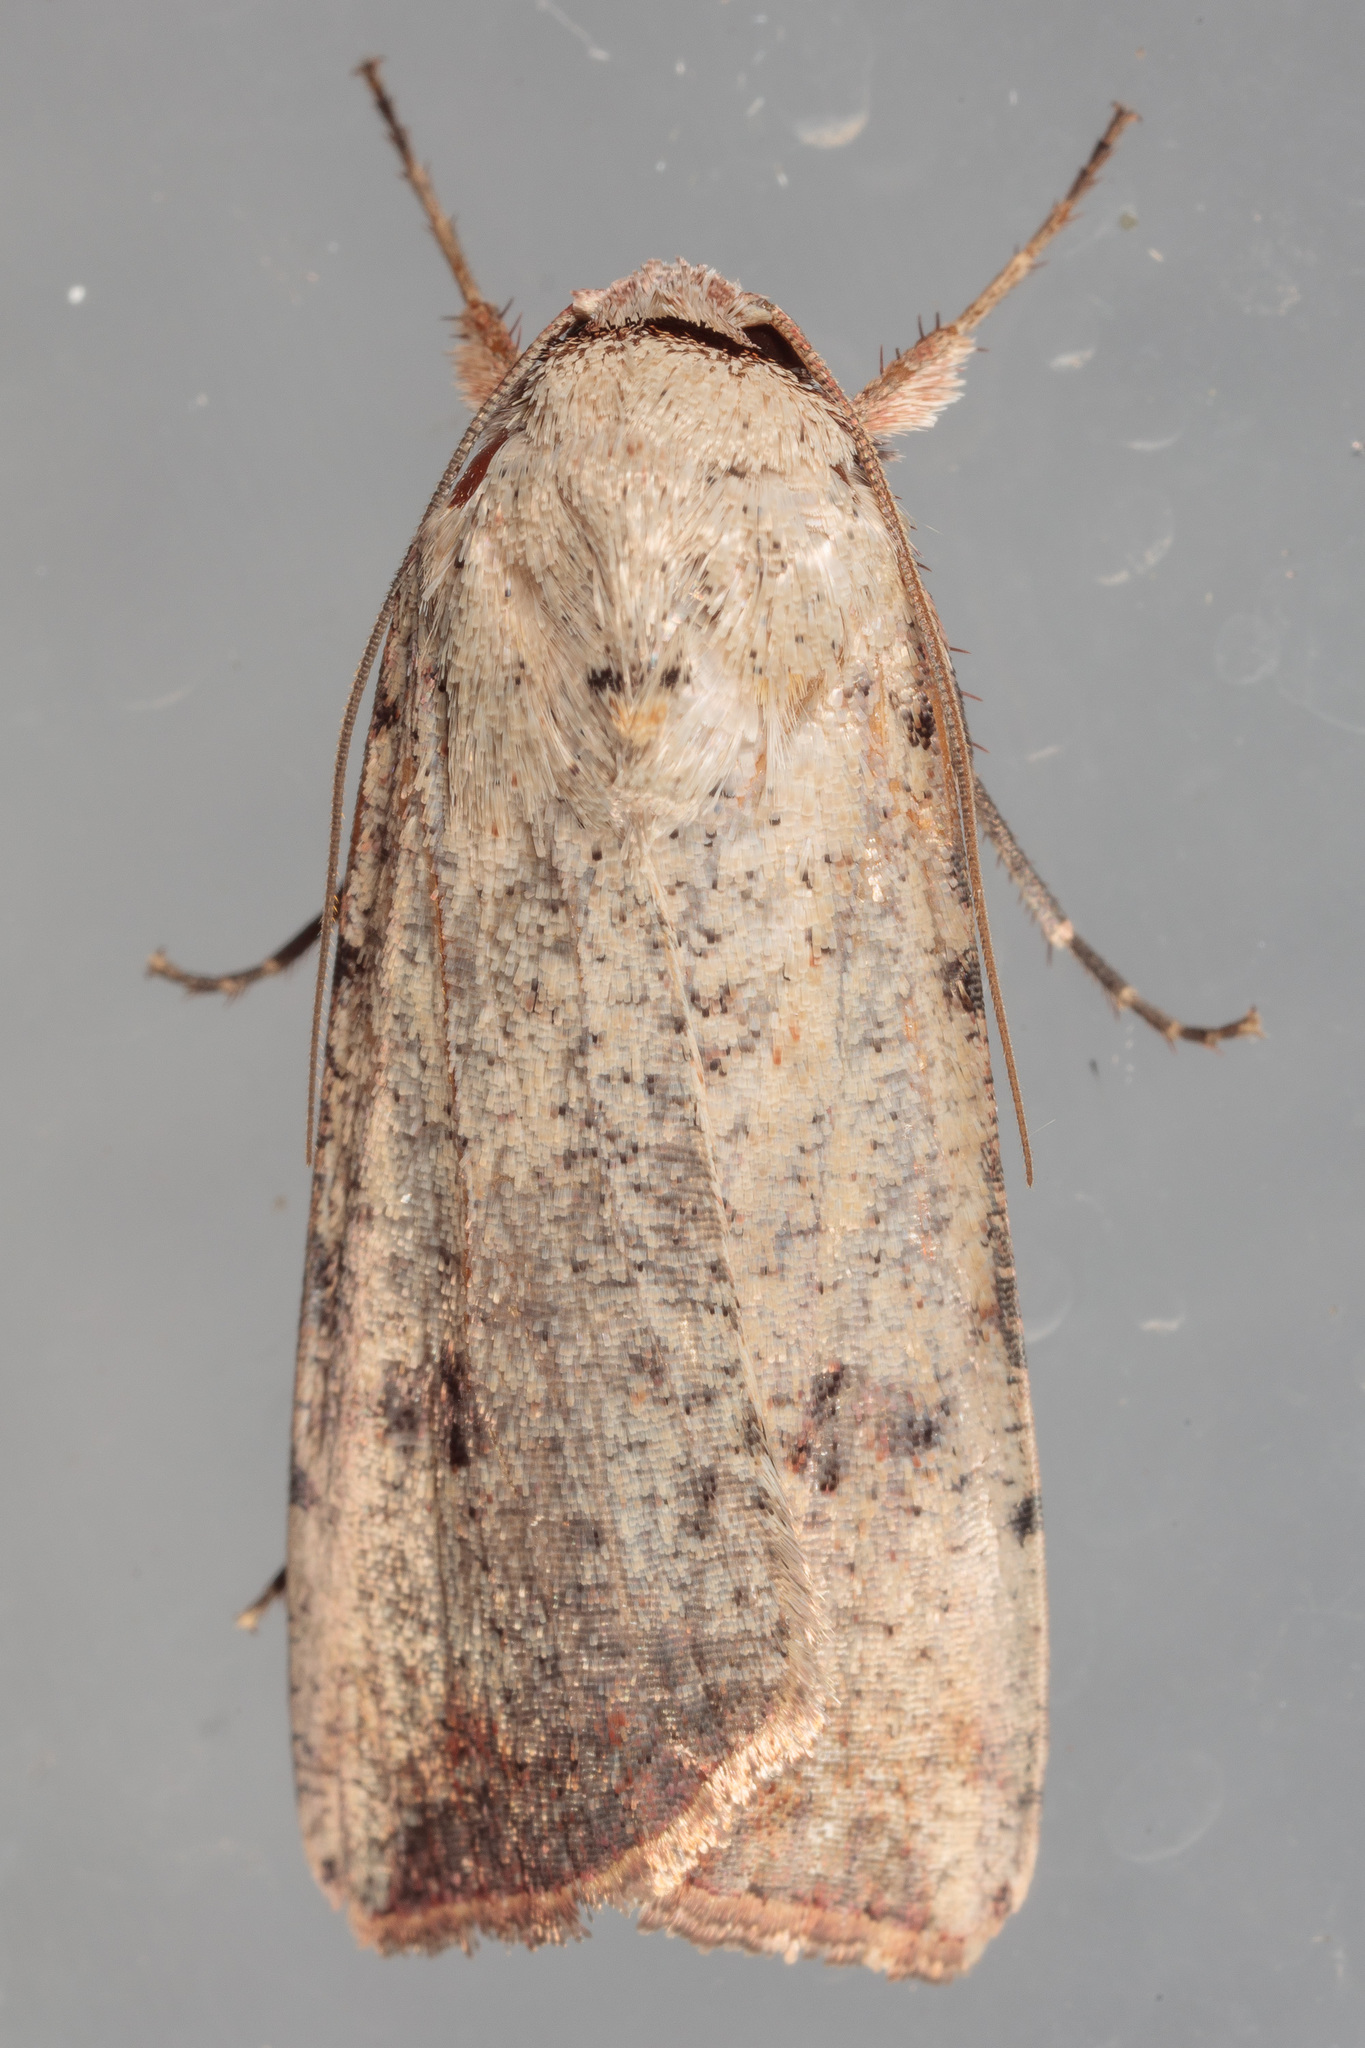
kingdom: Animalia
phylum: Arthropoda
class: Insecta
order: Lepidoptera
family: Noctuidae
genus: Anicla
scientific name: Anicla infecta
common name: Green cutworm
